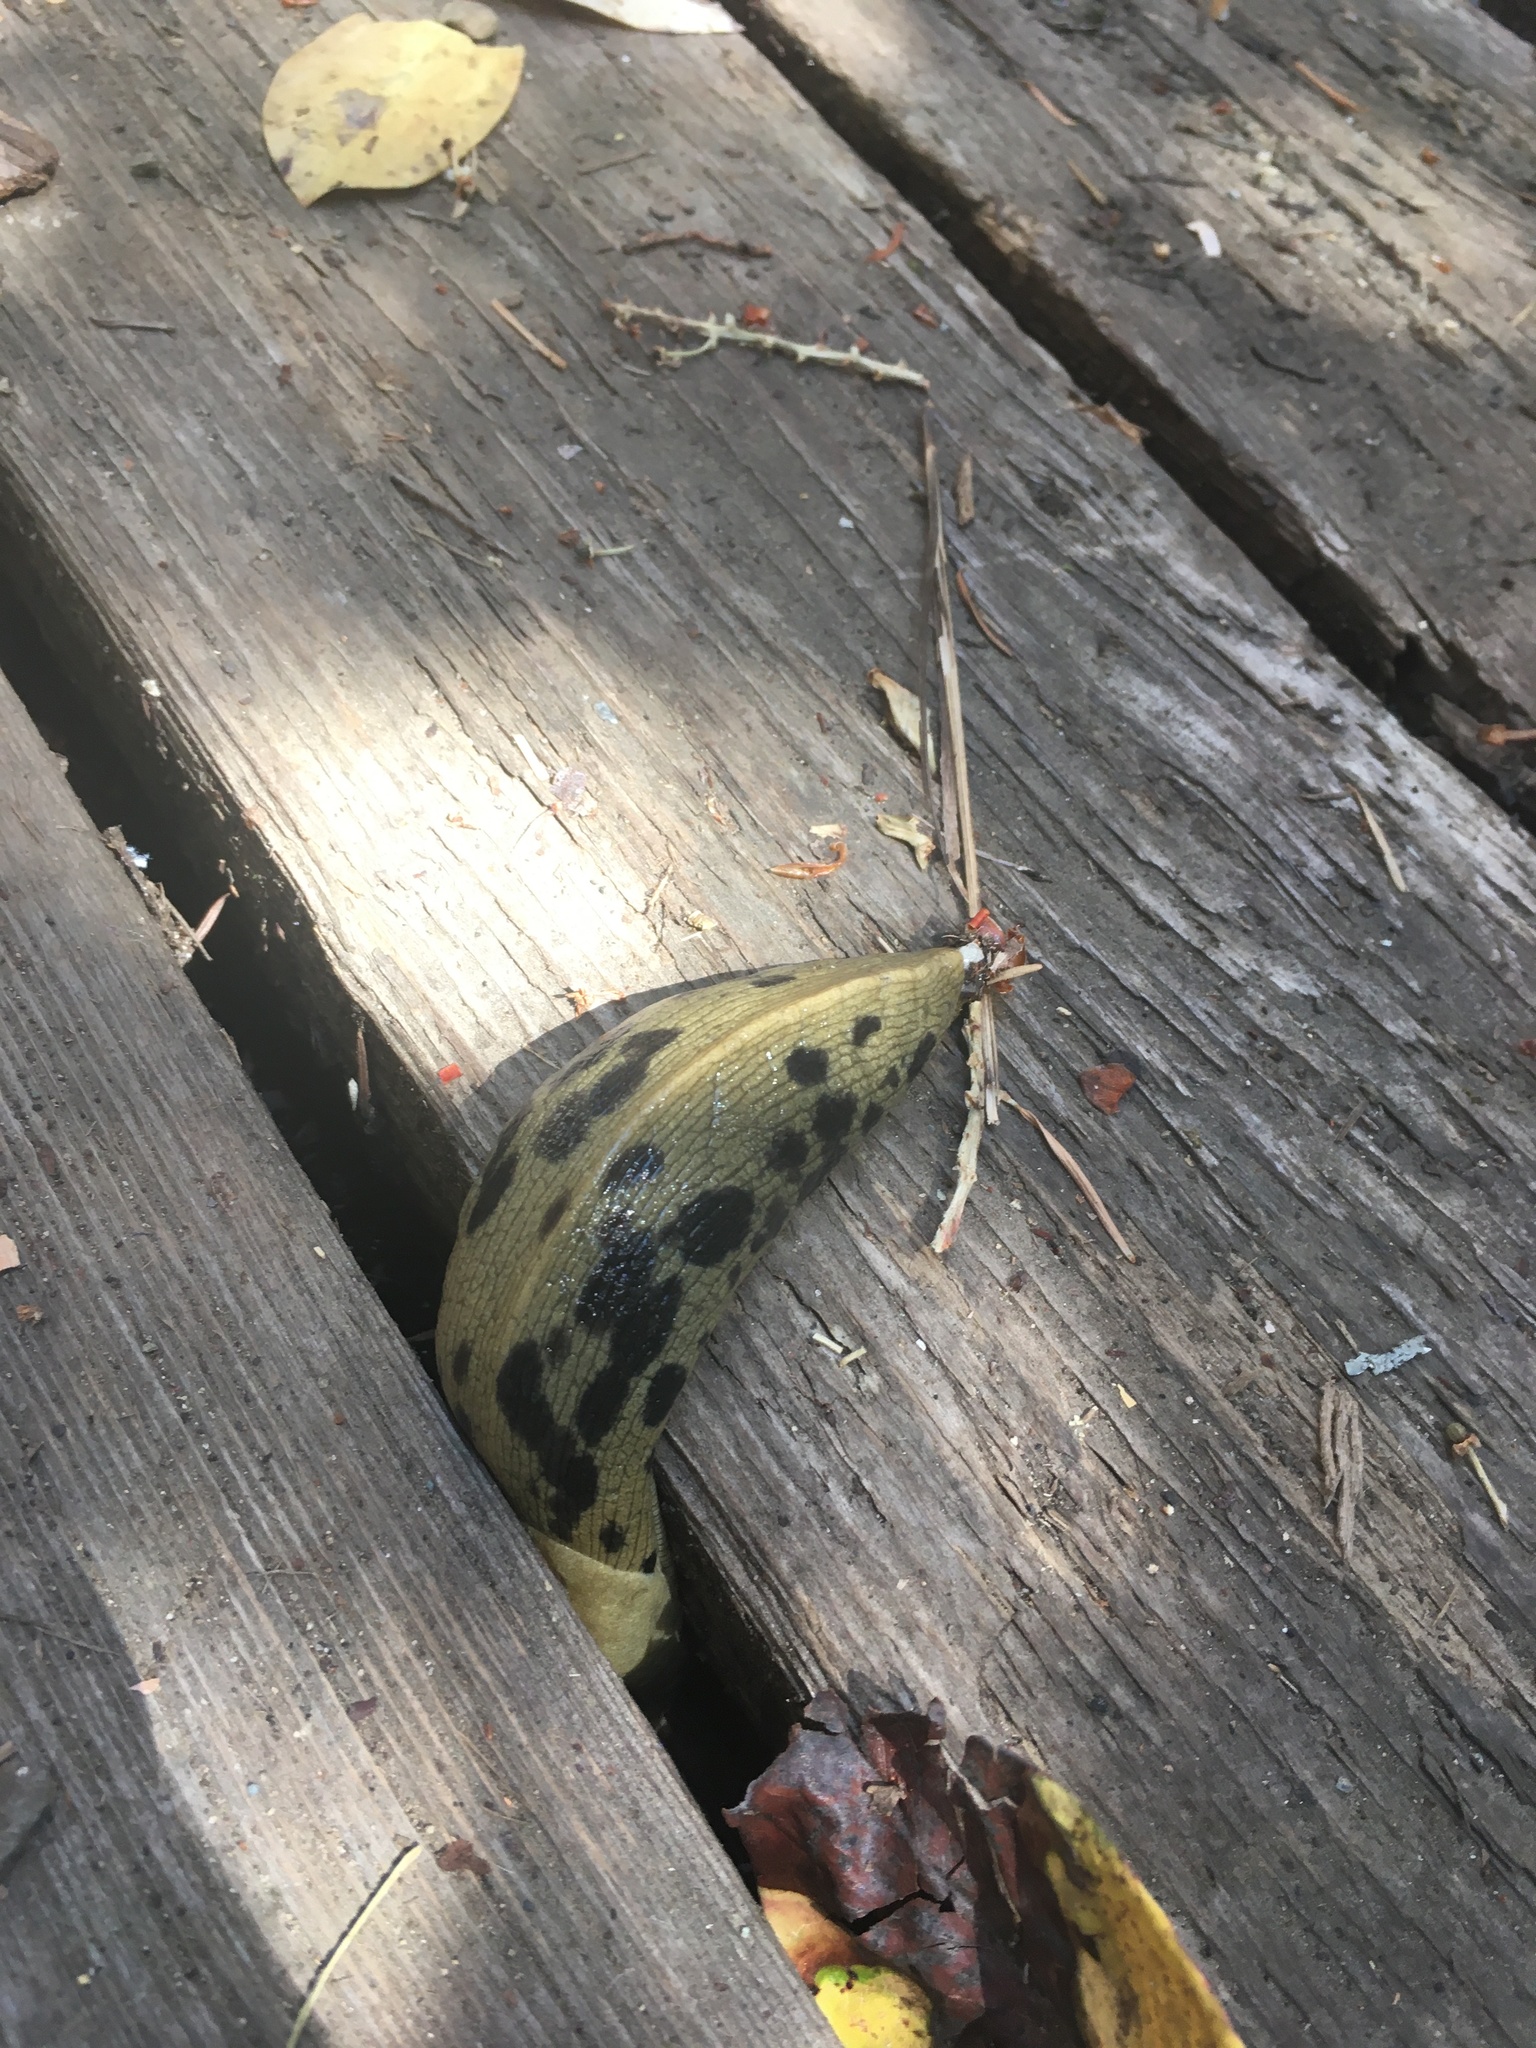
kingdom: Animalia
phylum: Mollusca
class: Gastropoda
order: Stylommatophora
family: Ariolimacidae
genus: Ariolimax
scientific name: Ariolimax columbianus
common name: Pacific banana slug
